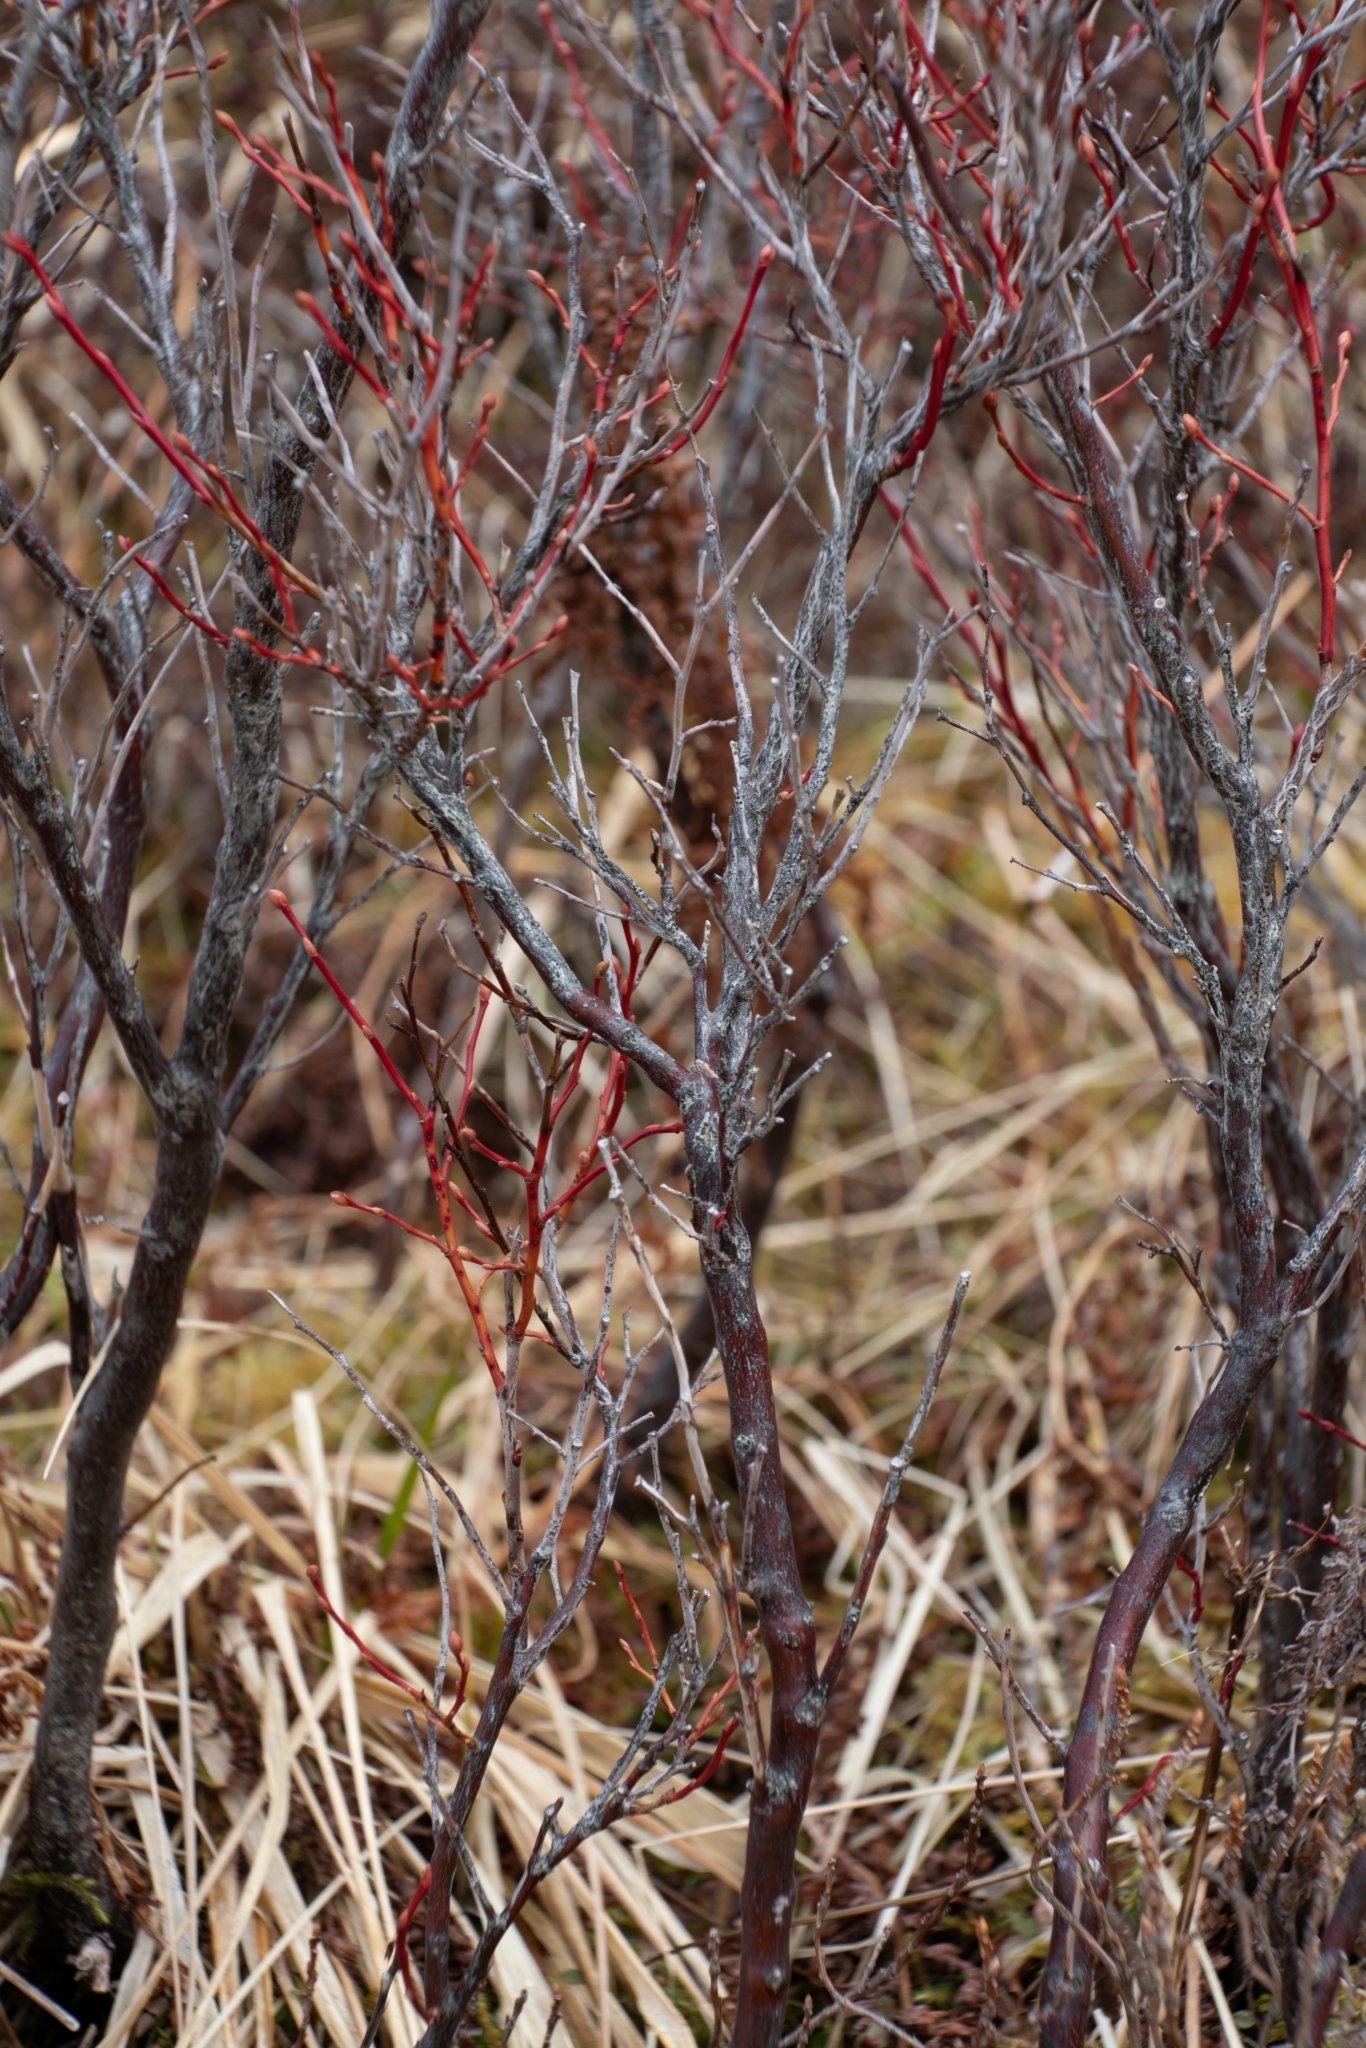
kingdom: Plantae
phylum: Tracheophyta
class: Magnoliopsida
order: Ericales
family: Ericaceae
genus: Vaccinium
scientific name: Vaccinium ovalifolium
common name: Early blueberry
